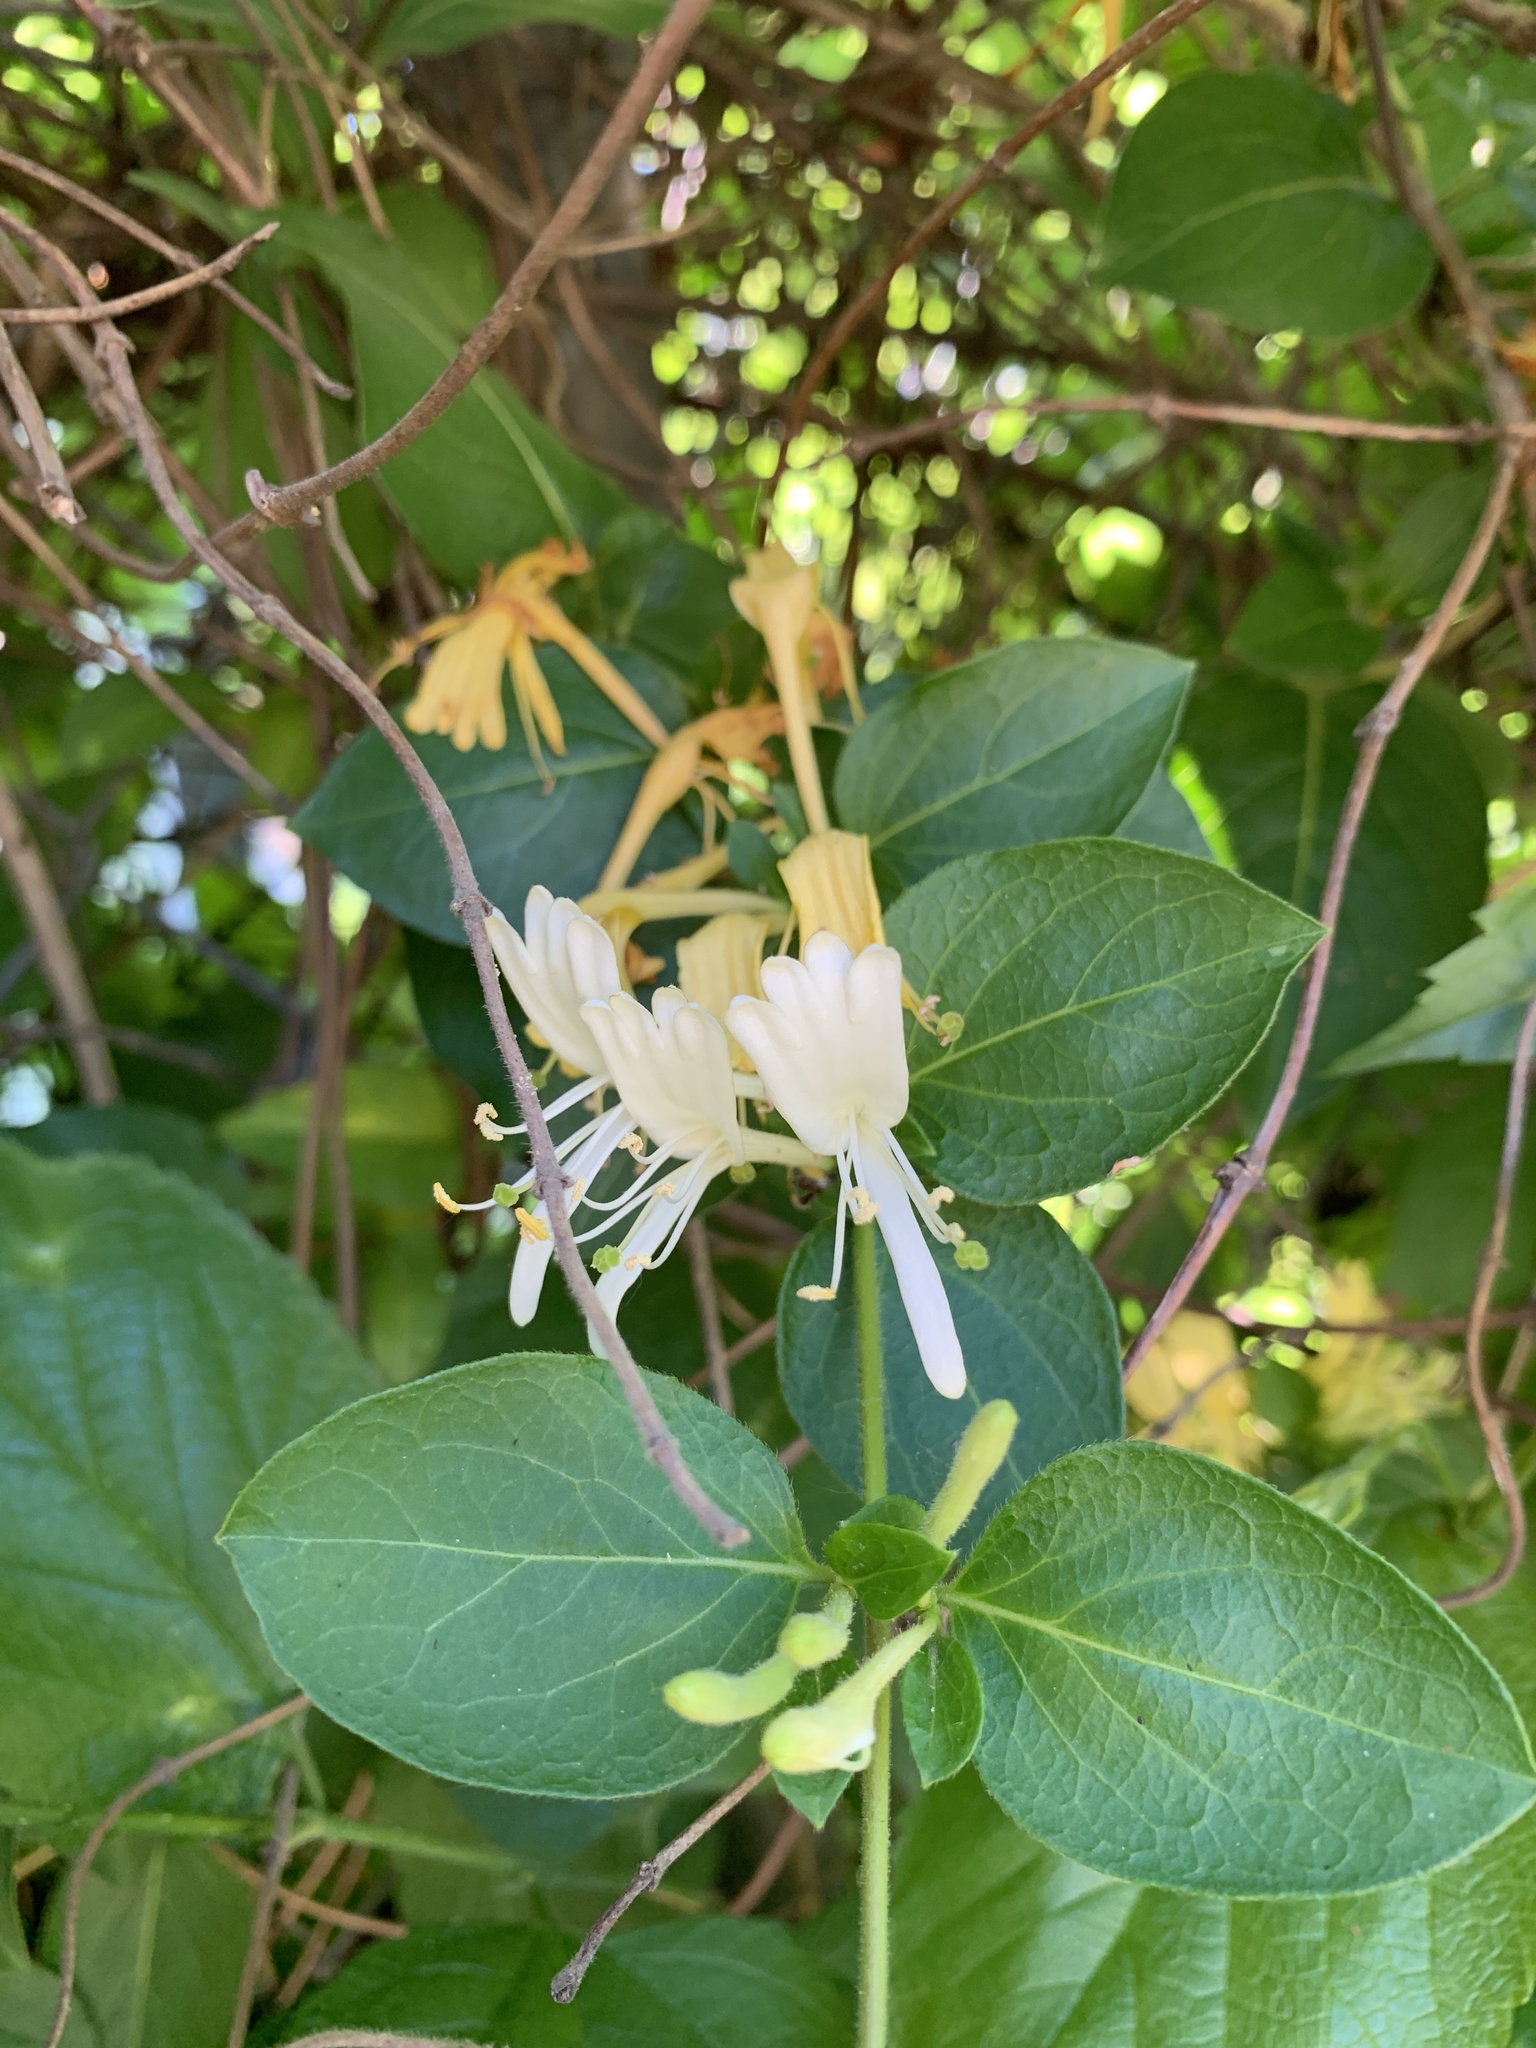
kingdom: Plantae
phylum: Tracheophyta
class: Magnoliopsida
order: Dipsacales
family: Caprifoliaceae
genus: Lonicera
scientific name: Lonicera japonica
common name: Japanese honeysuckle
